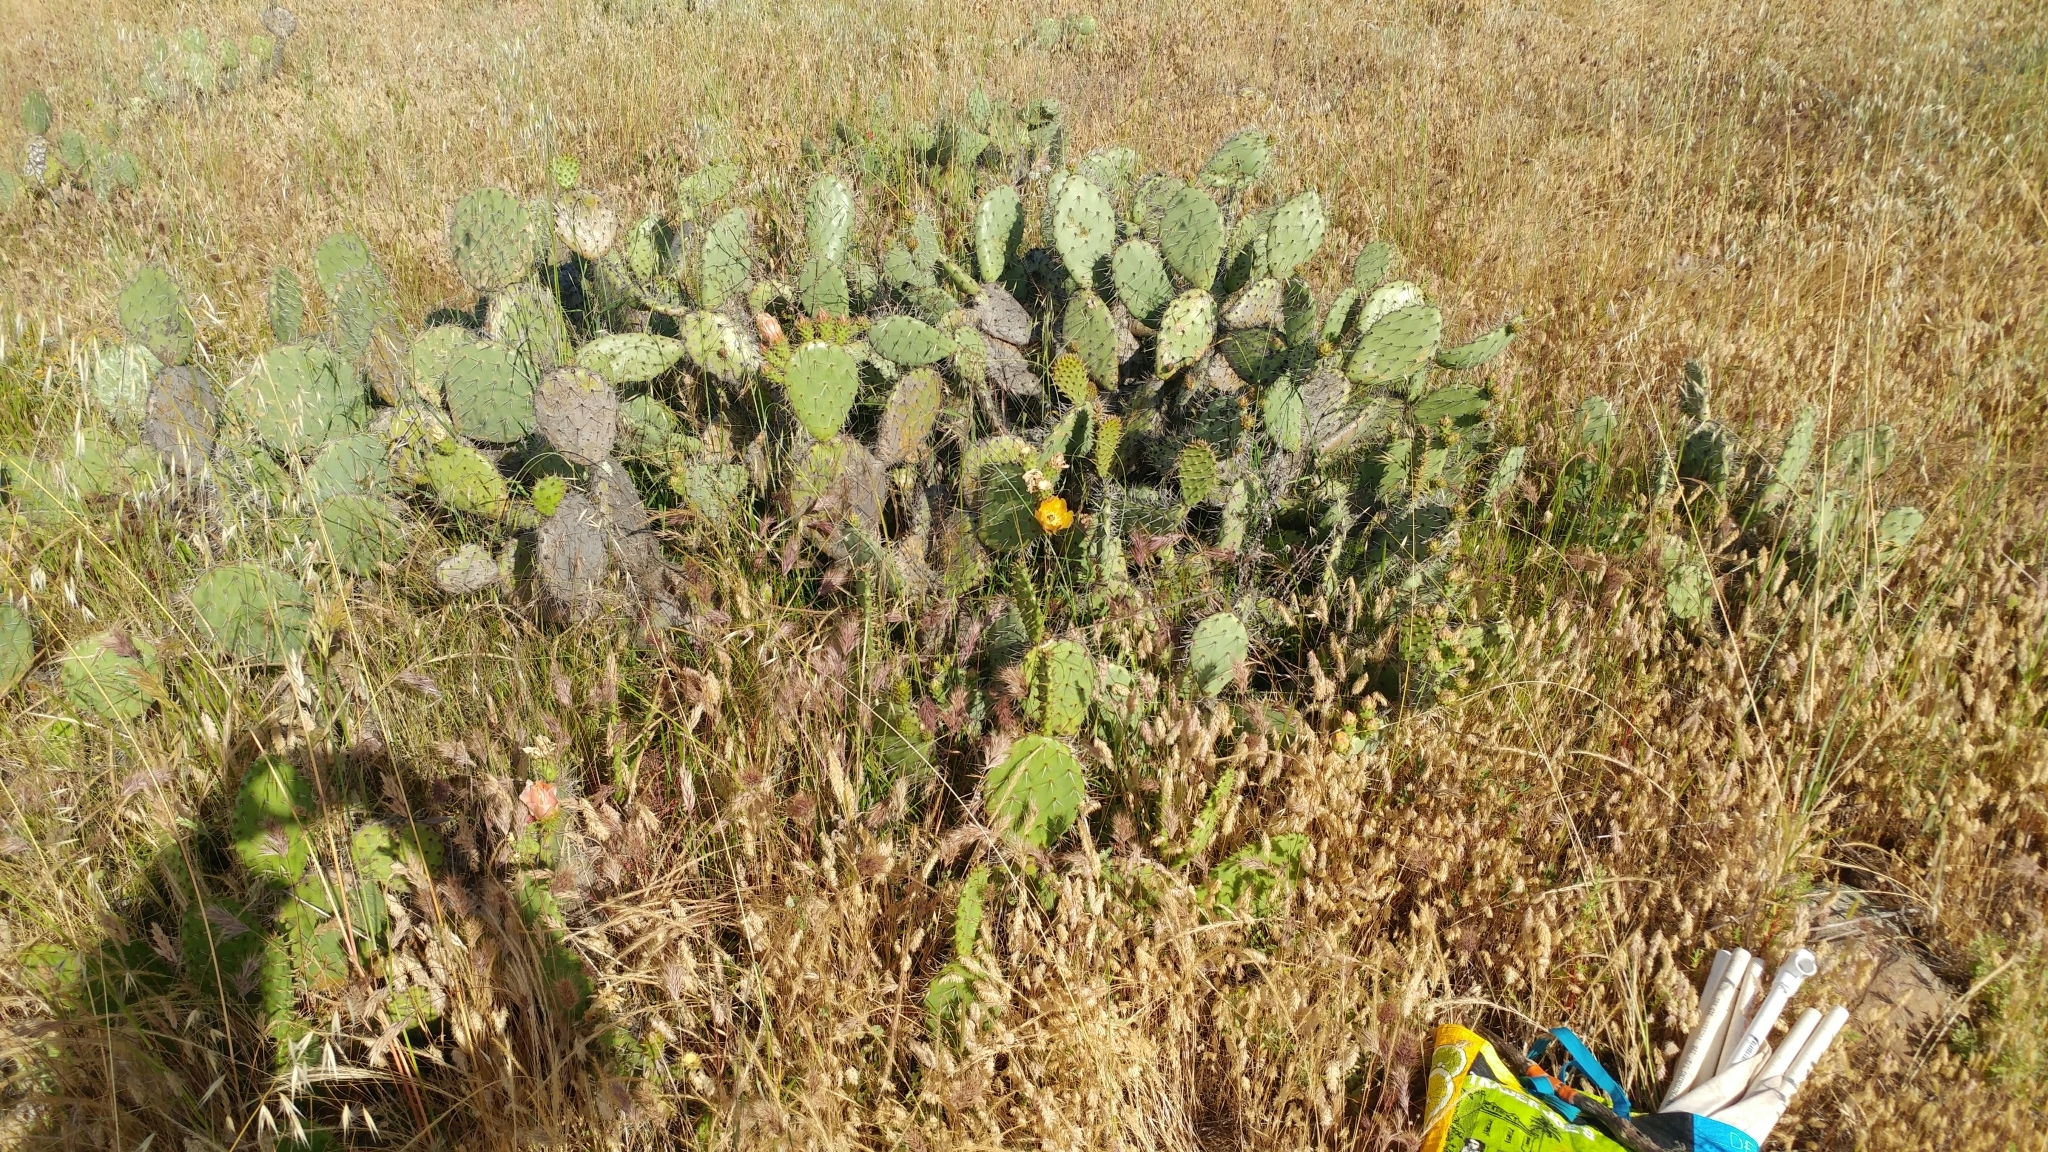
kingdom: Plantae
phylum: Tracheophyta
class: Magnoliopsida
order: Caryophyllales
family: Cactaceae
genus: Opuntia
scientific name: Opuntia littoralis
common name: Coastal prickly-pear
